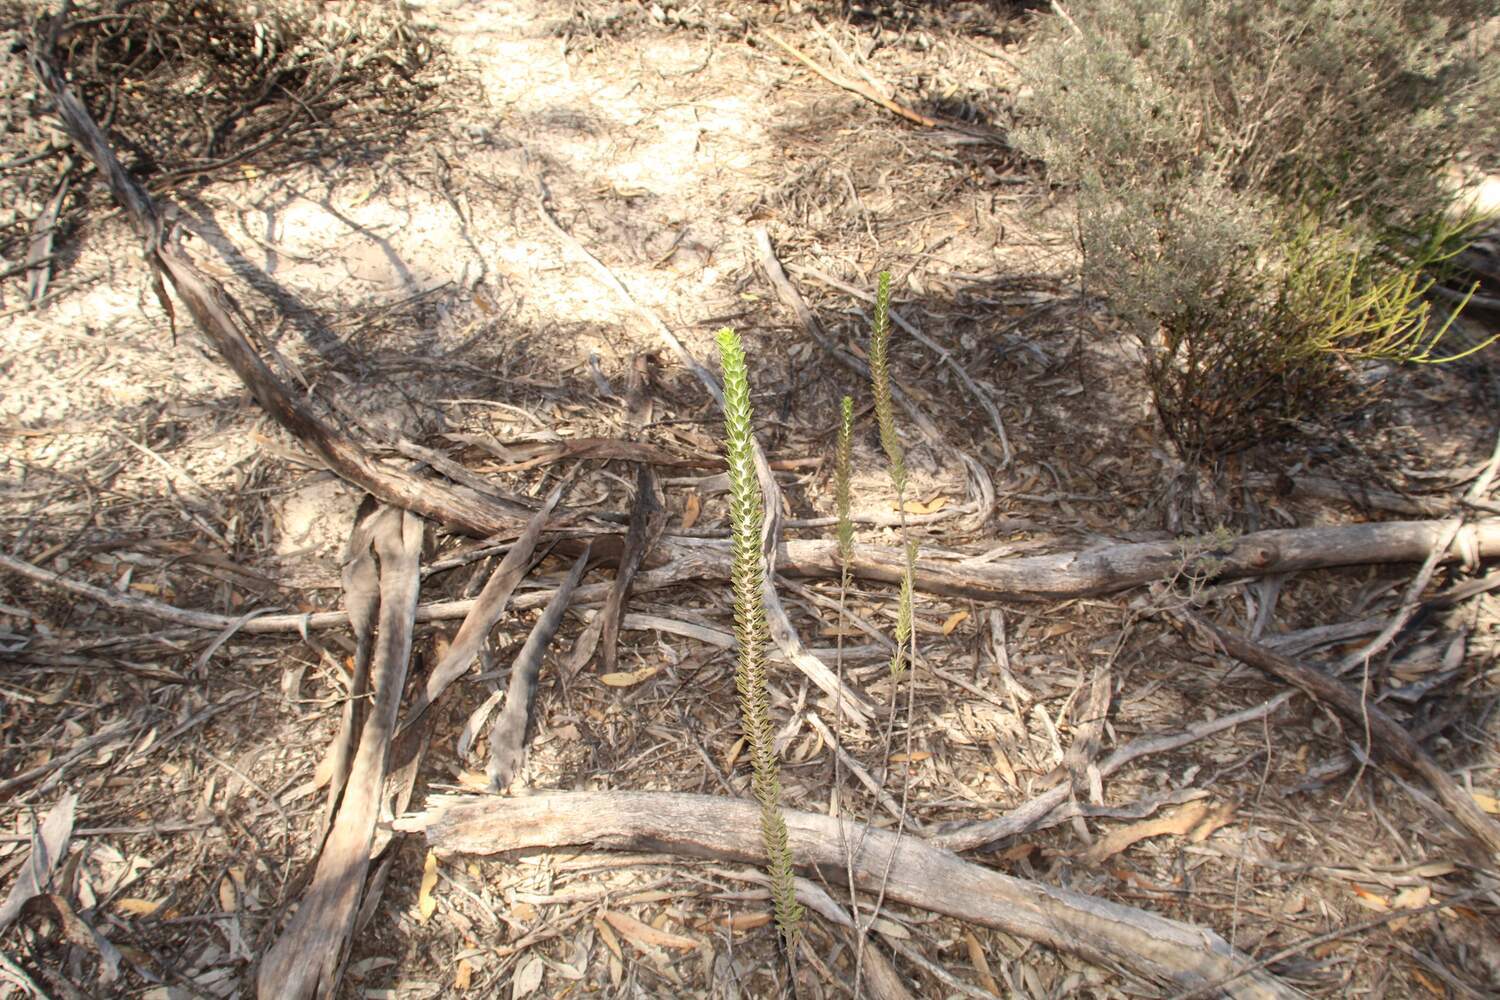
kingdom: Plantae
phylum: Tracheophyta
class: Magnoliopsida
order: Lamiales
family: Scrophulariaceae
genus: Eremophila
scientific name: Eremophila calorhabdos
